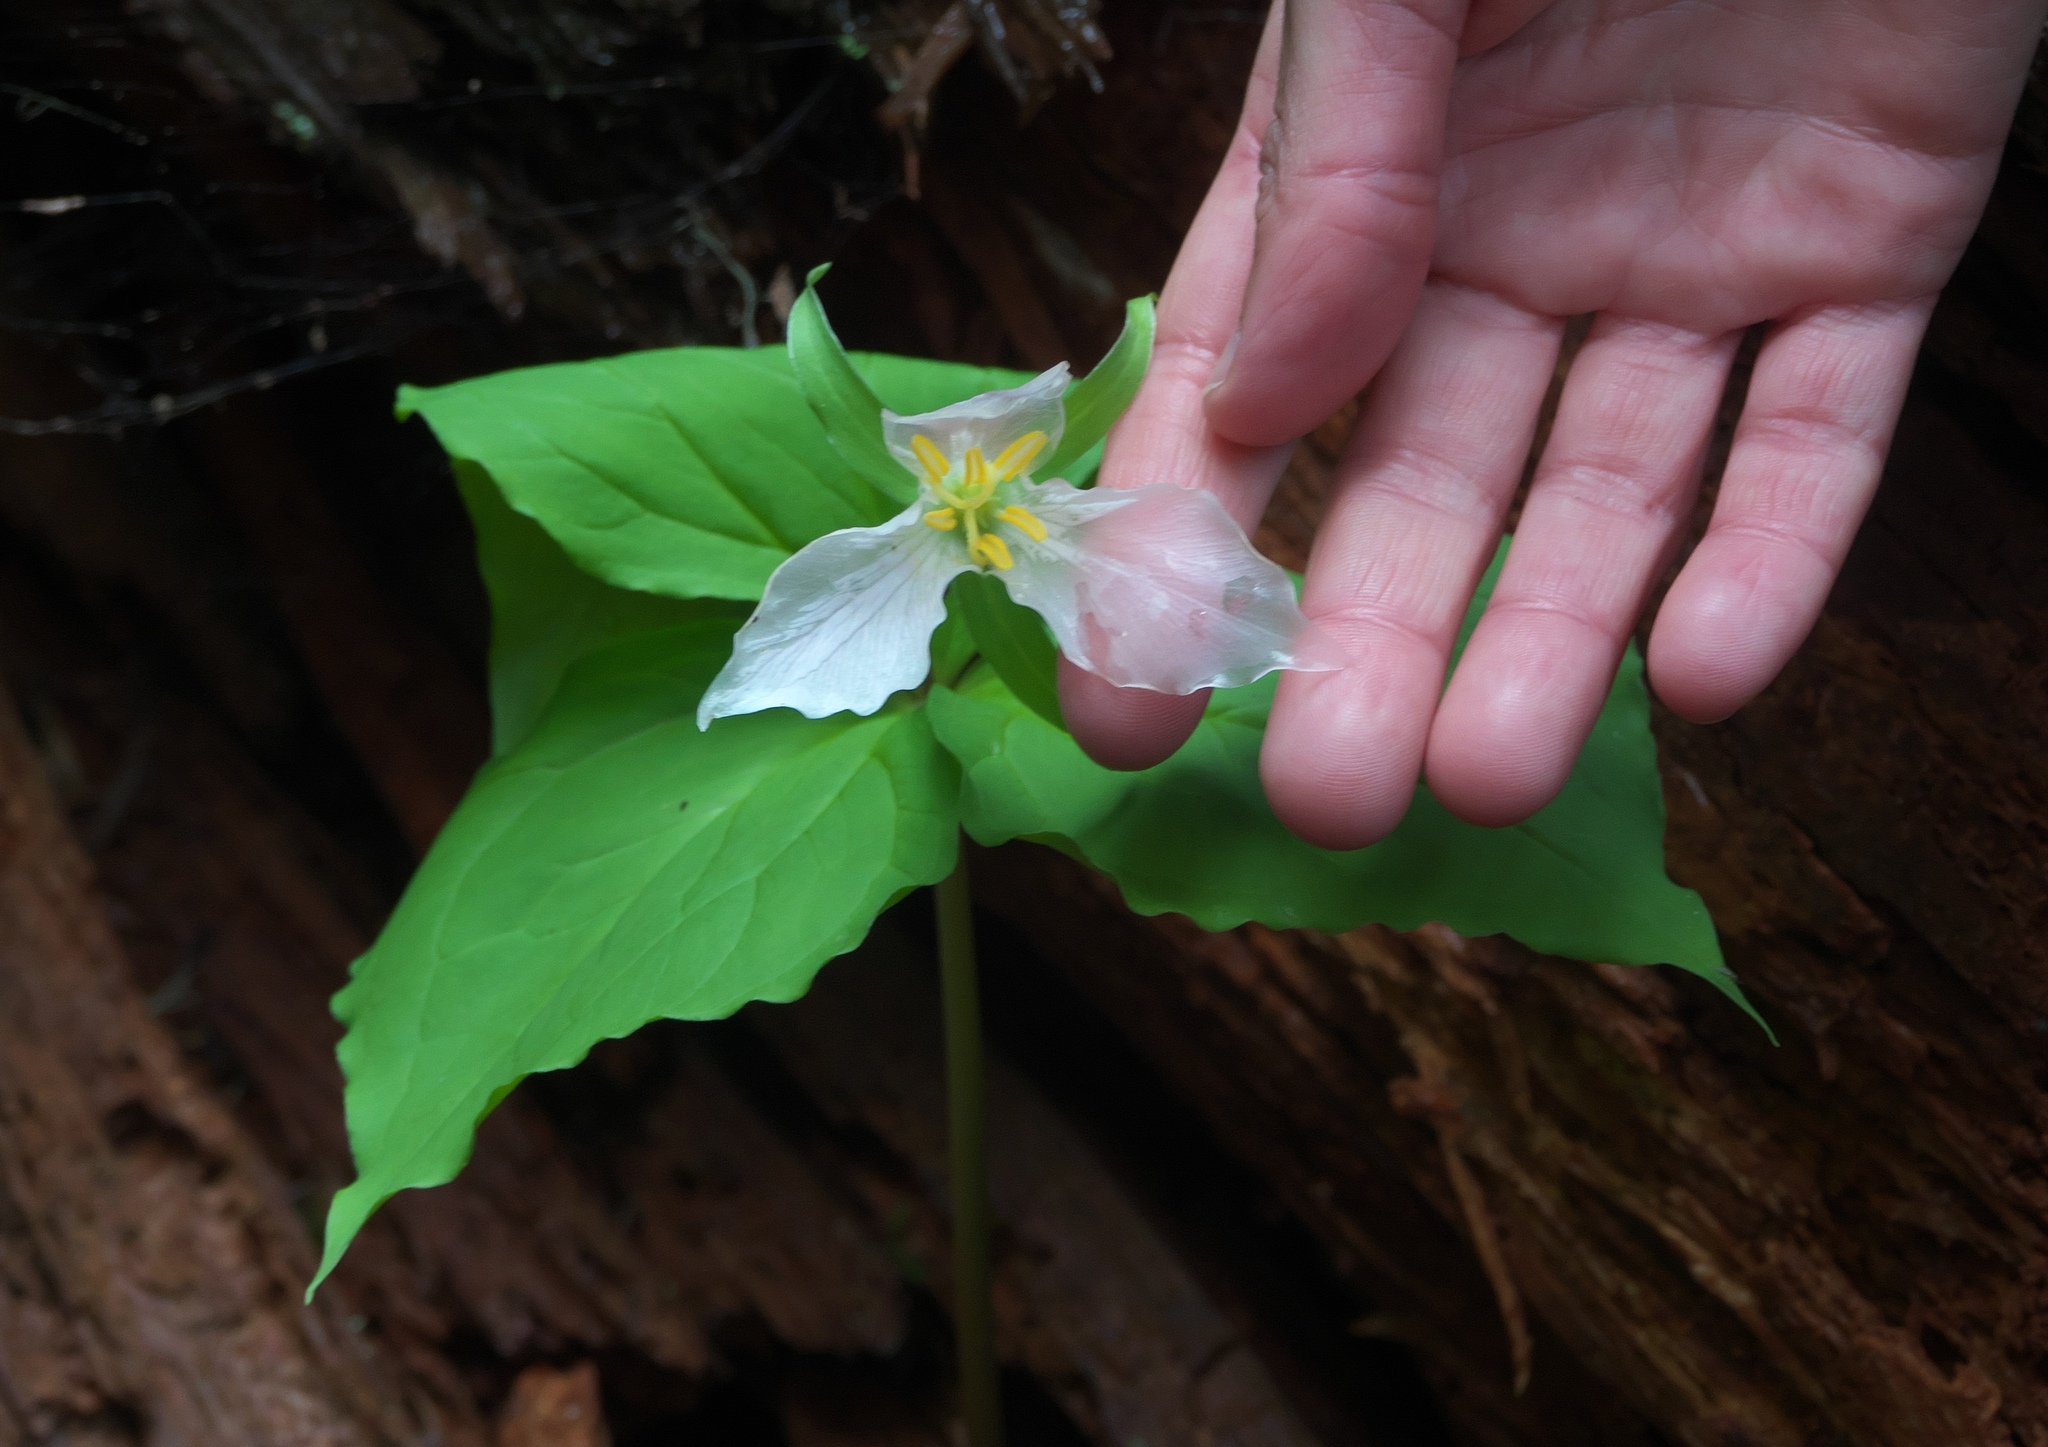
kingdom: Plantae
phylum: Tracheophyta
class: Liliopsida
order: Liliales
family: Melanthiaceae
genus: Trillium
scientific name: Trillium ovatum
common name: Pacific trillium
